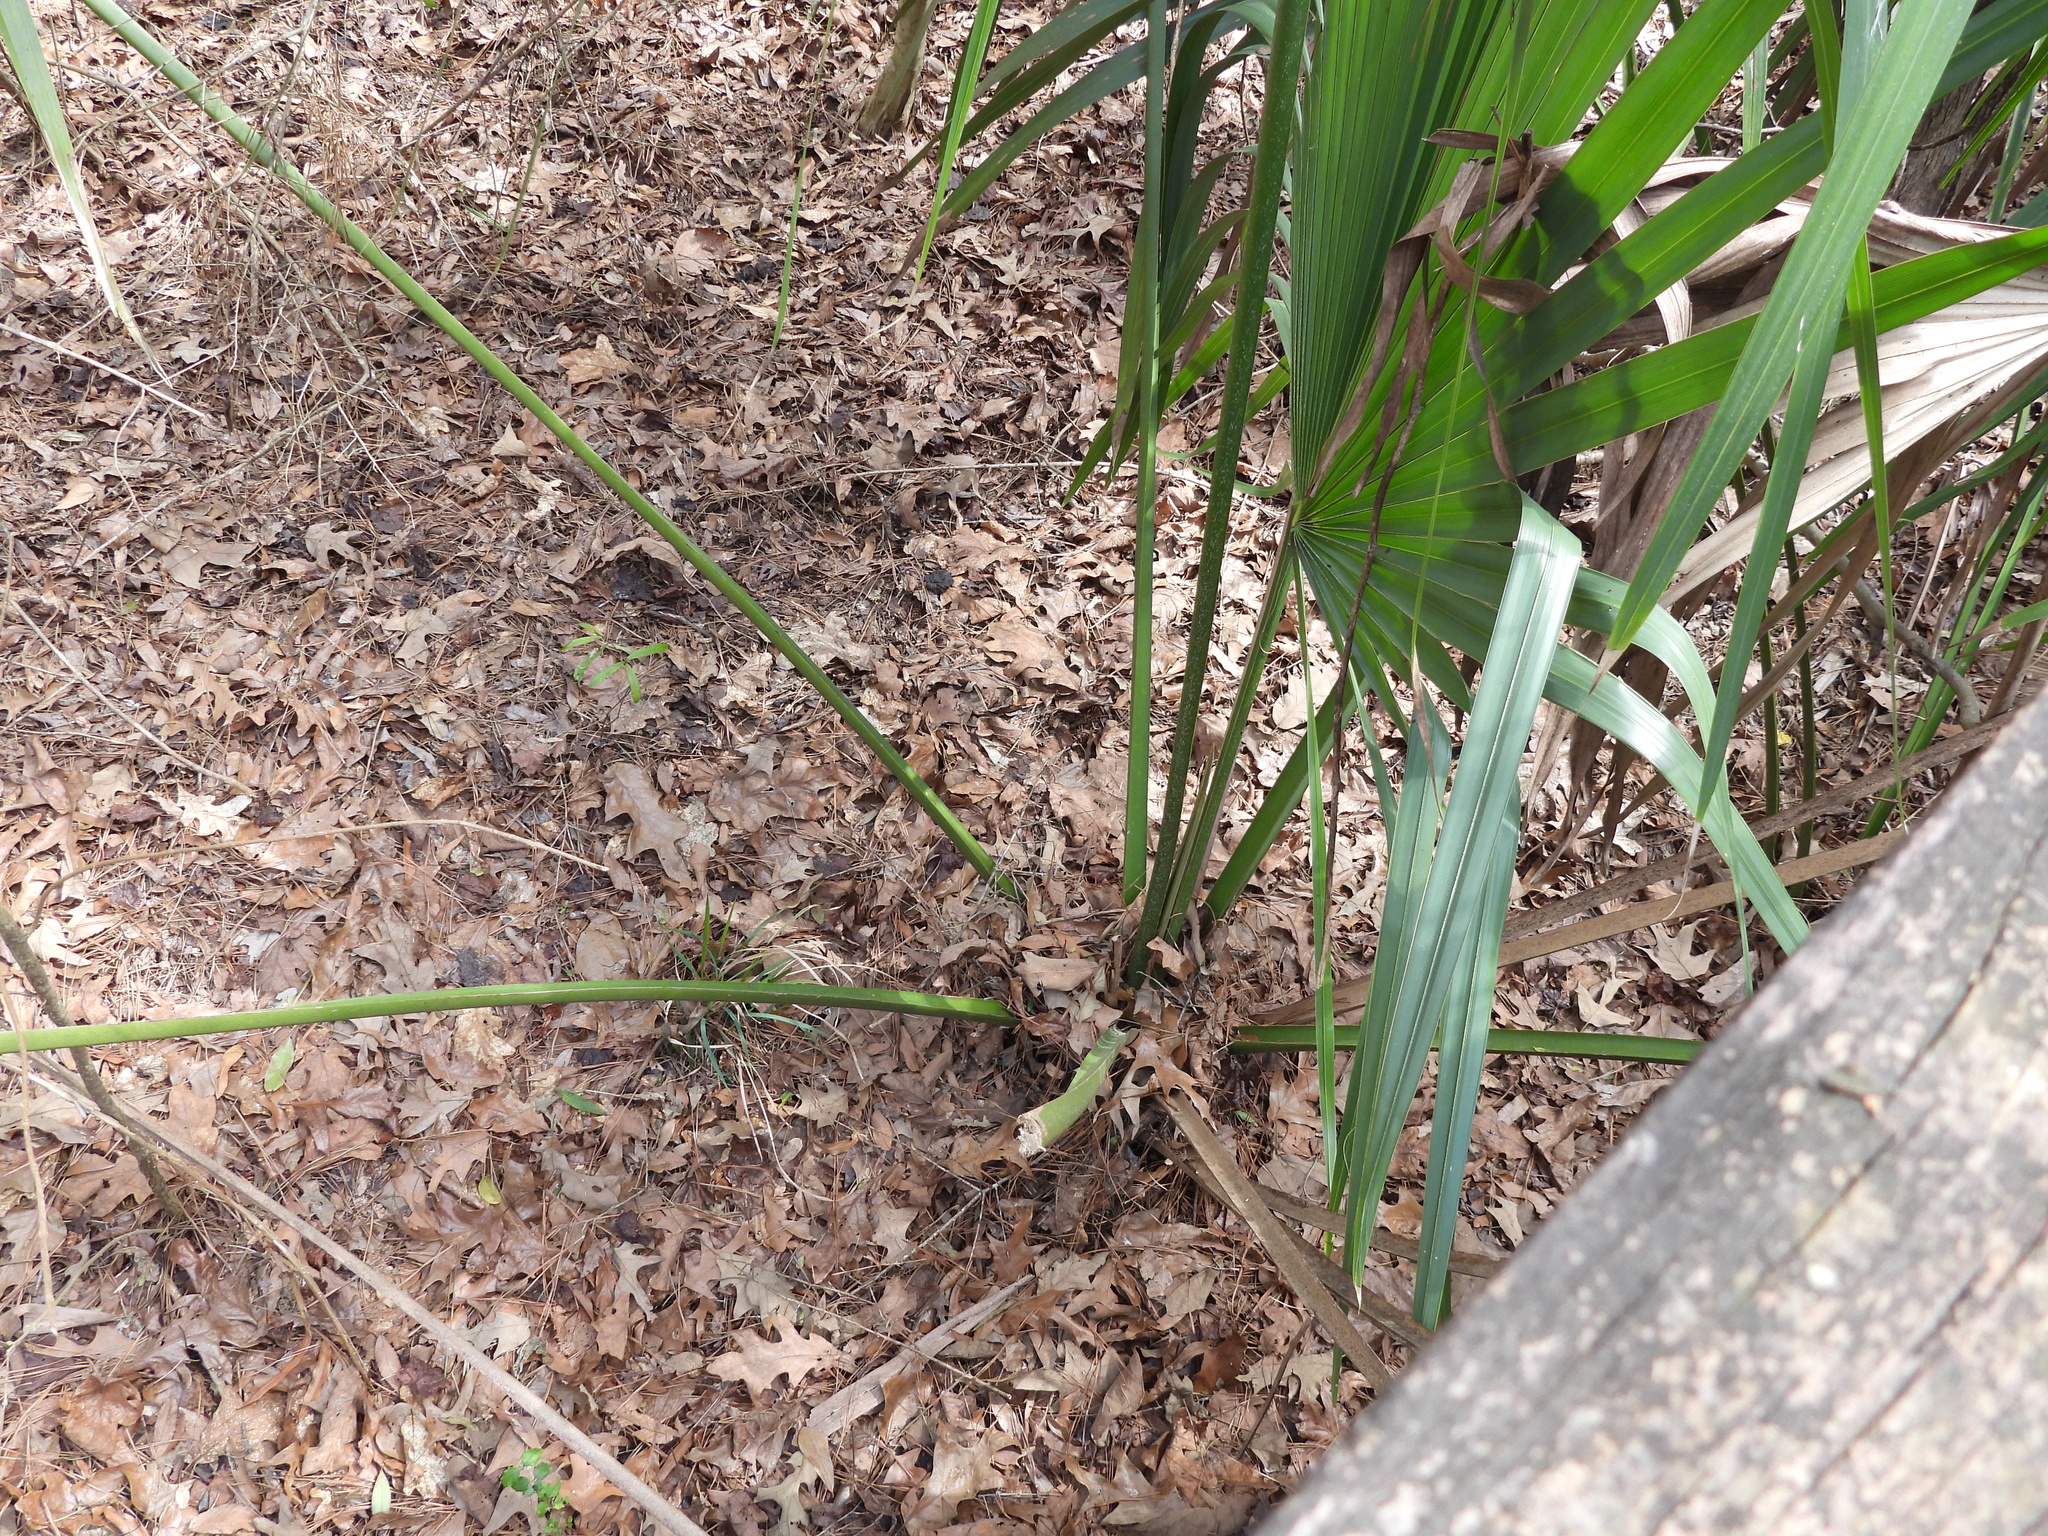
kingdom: Plantae
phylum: Tracheophyta
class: Liliopsida
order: Arecales
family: Arecaceae
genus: Sabal
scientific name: Sabal minor
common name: Dwarf palmetto
